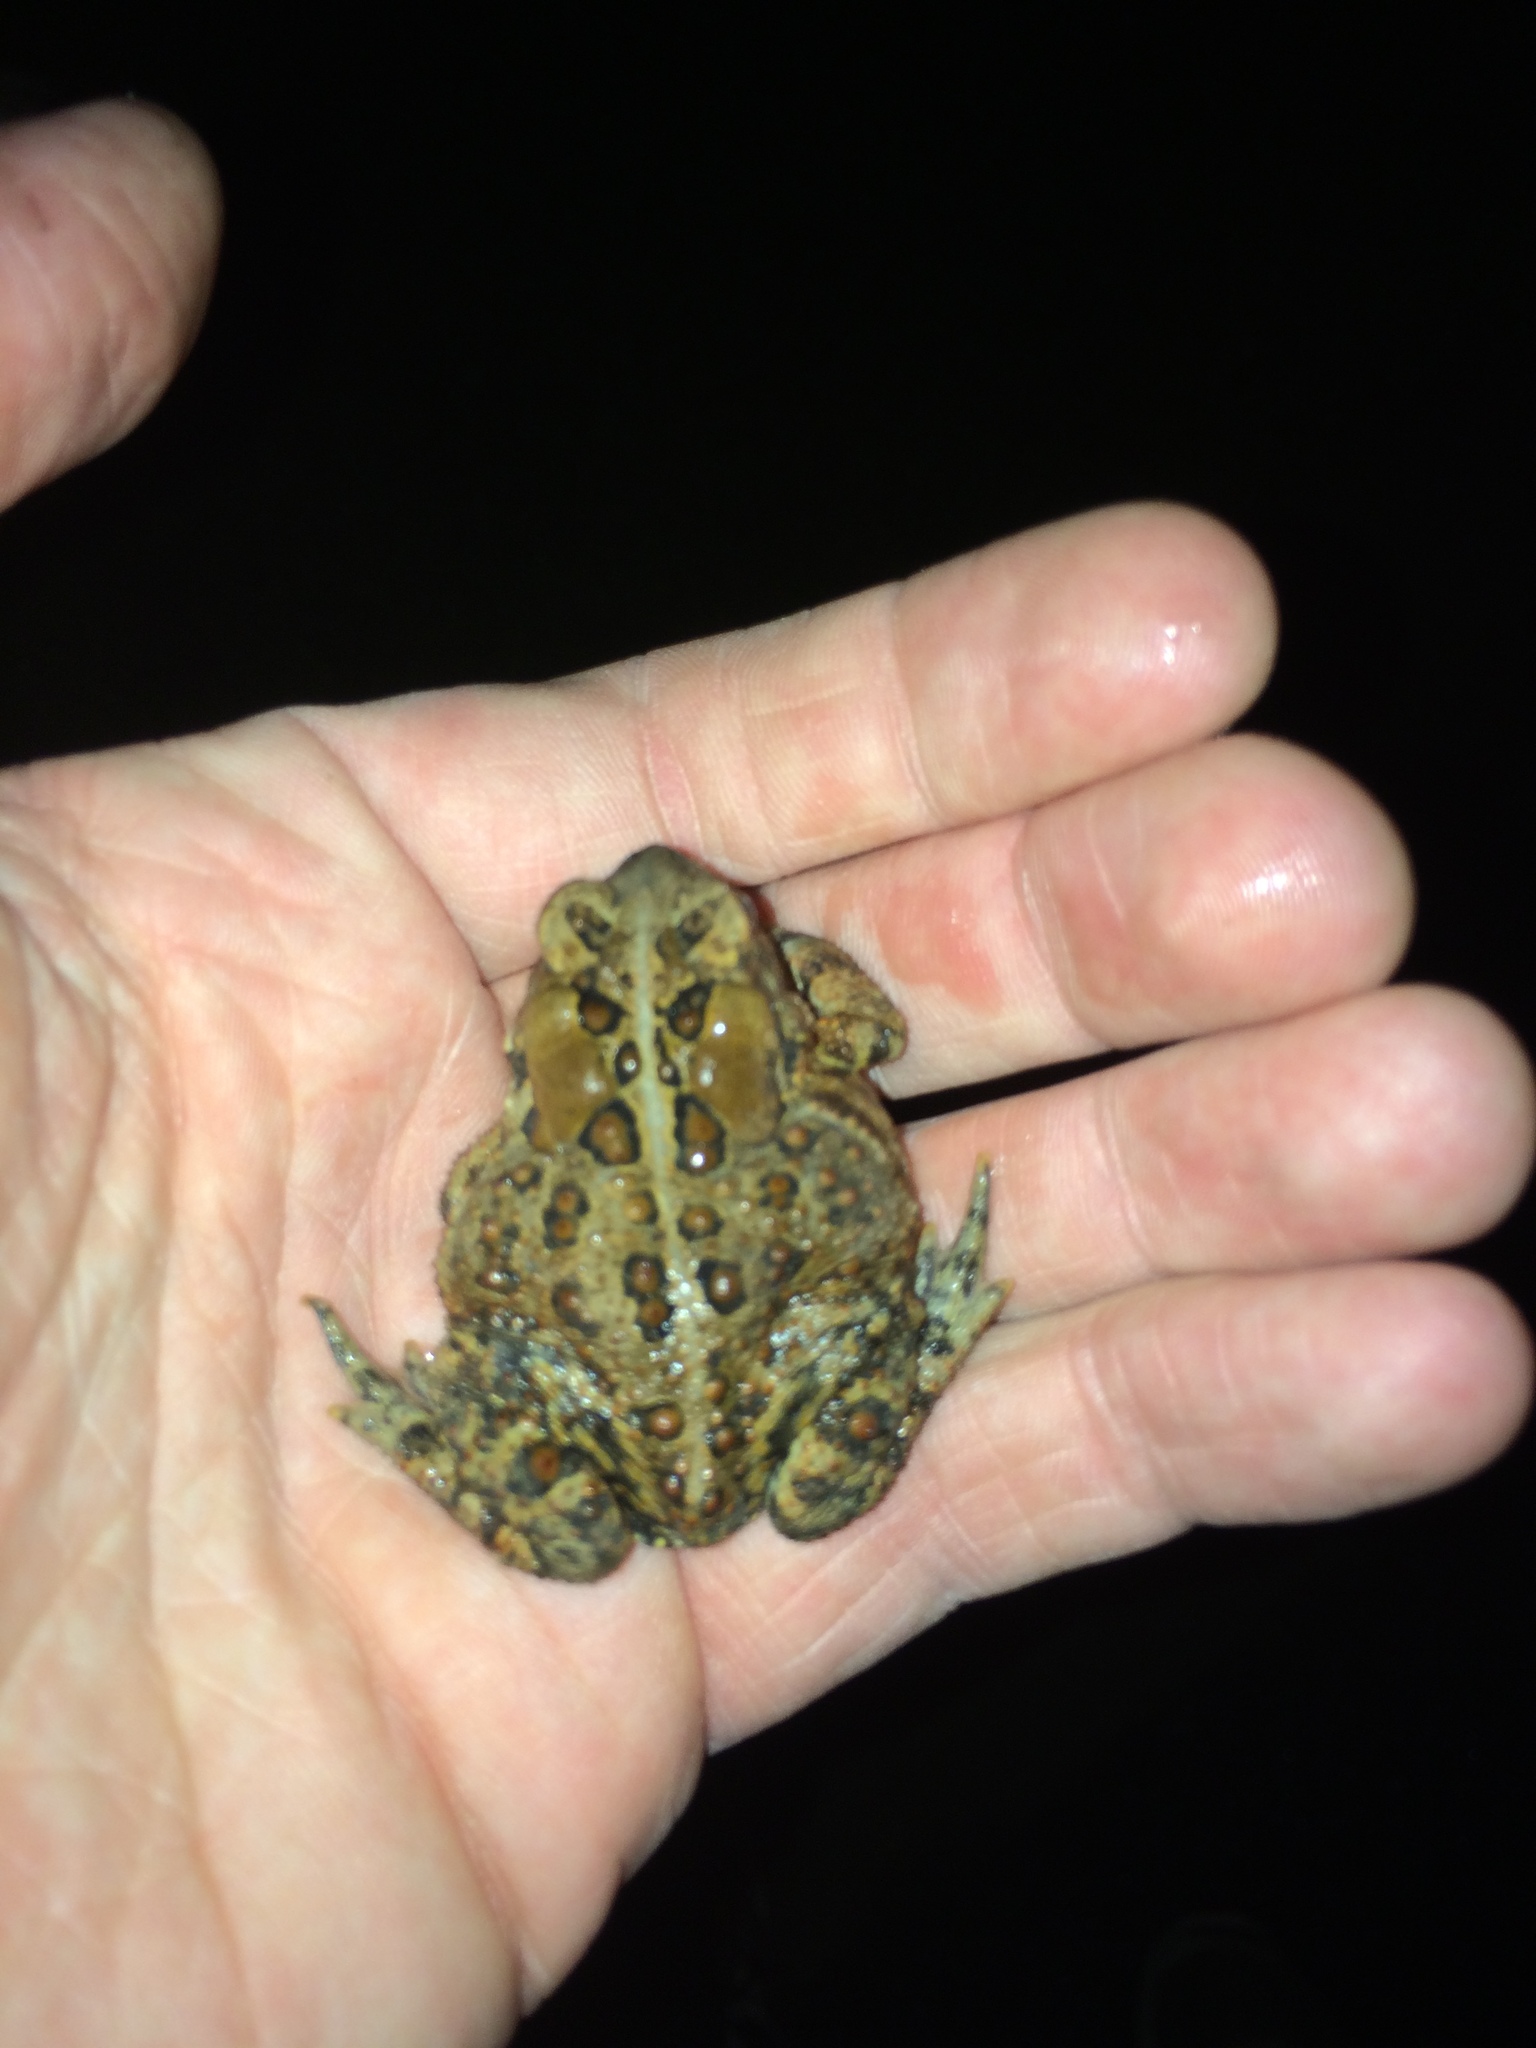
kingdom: Animalia
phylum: Chordata
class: Amphibia
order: Anura
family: Bufonidae
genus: Anaxyrus
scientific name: Anaxyrus americanus
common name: American toad
